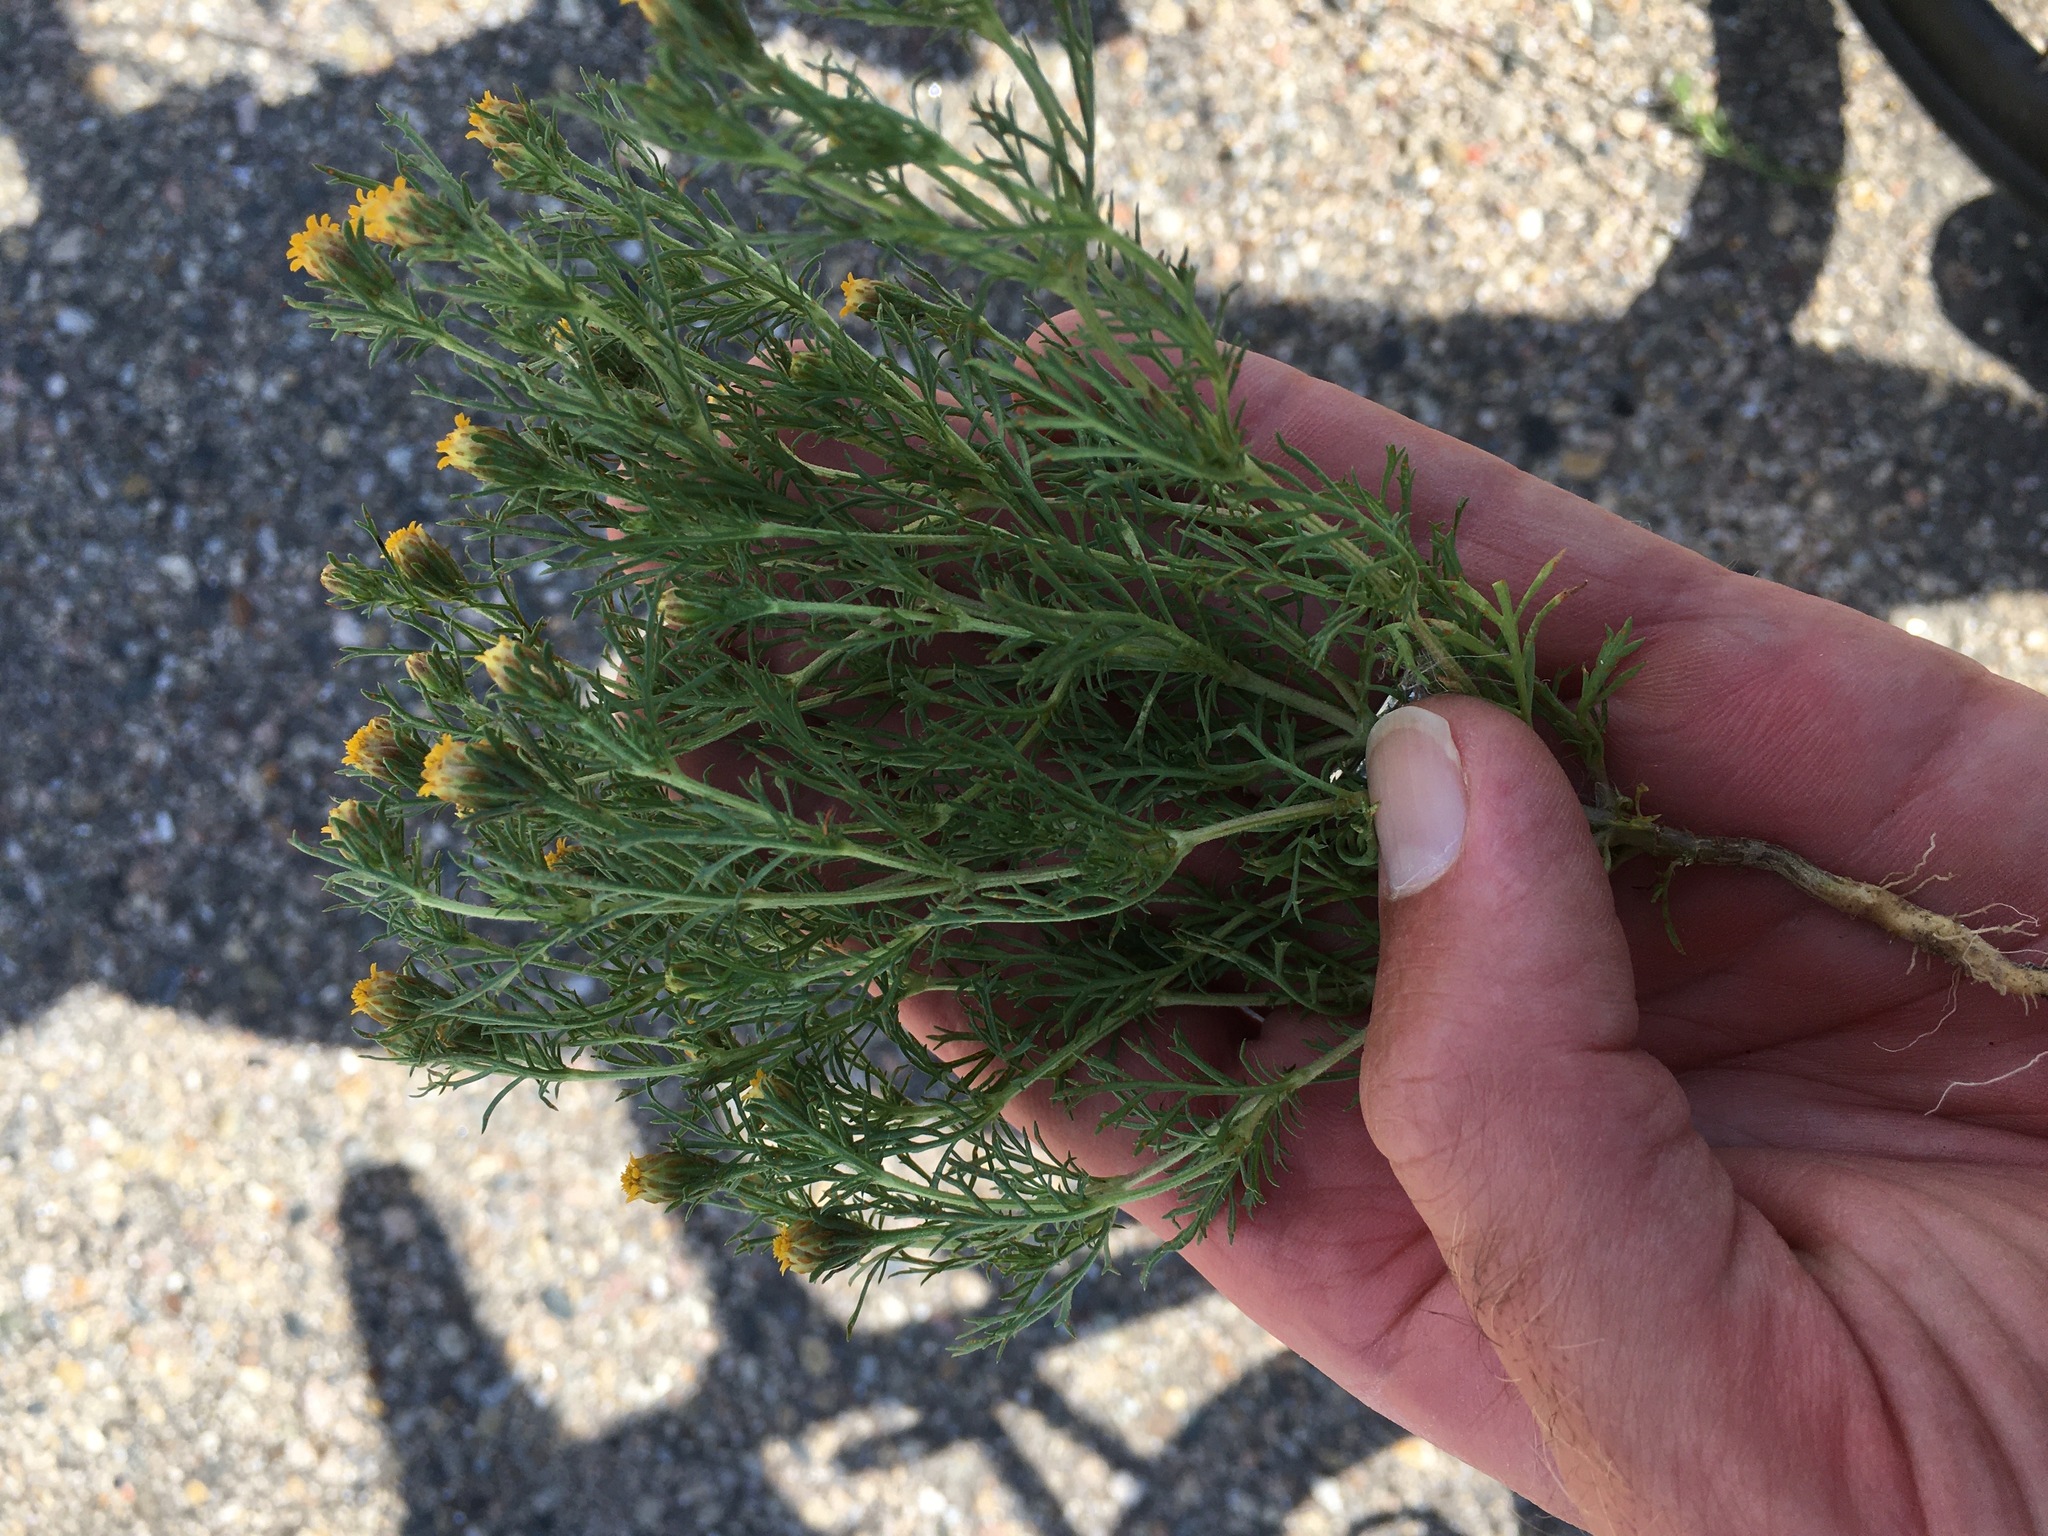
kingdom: Plantae
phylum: Tracheophyta
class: Magnoliopsida
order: Asterales
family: Asteraceae
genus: Dyssodia
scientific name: Dyssodia papposa
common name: Dogweed
